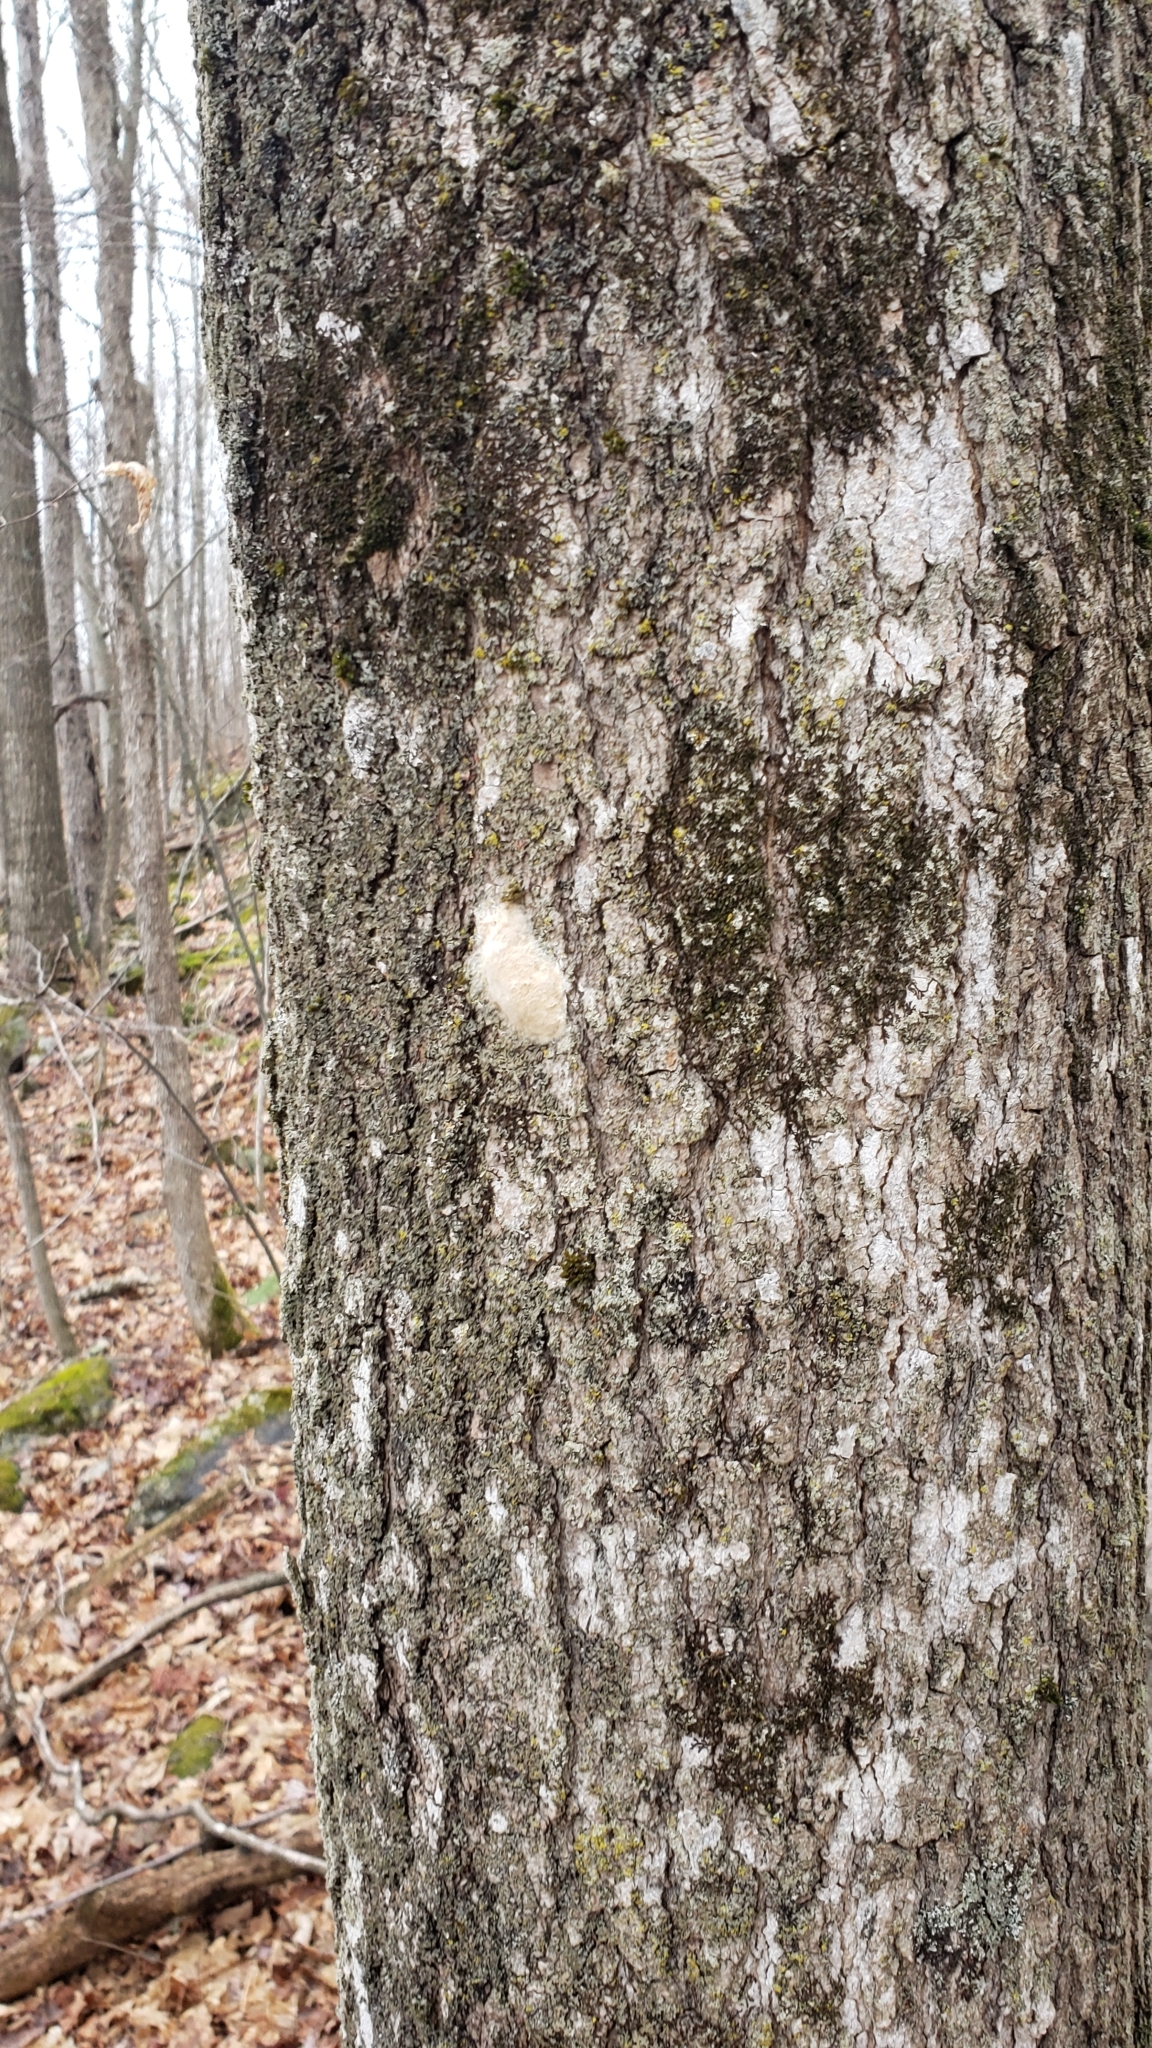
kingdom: Animalia
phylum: Arthropoda
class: Insecta
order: Lepidoptera
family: Erebidae
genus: Lymantria
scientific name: Lymantria dispar
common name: Gypsy moth
